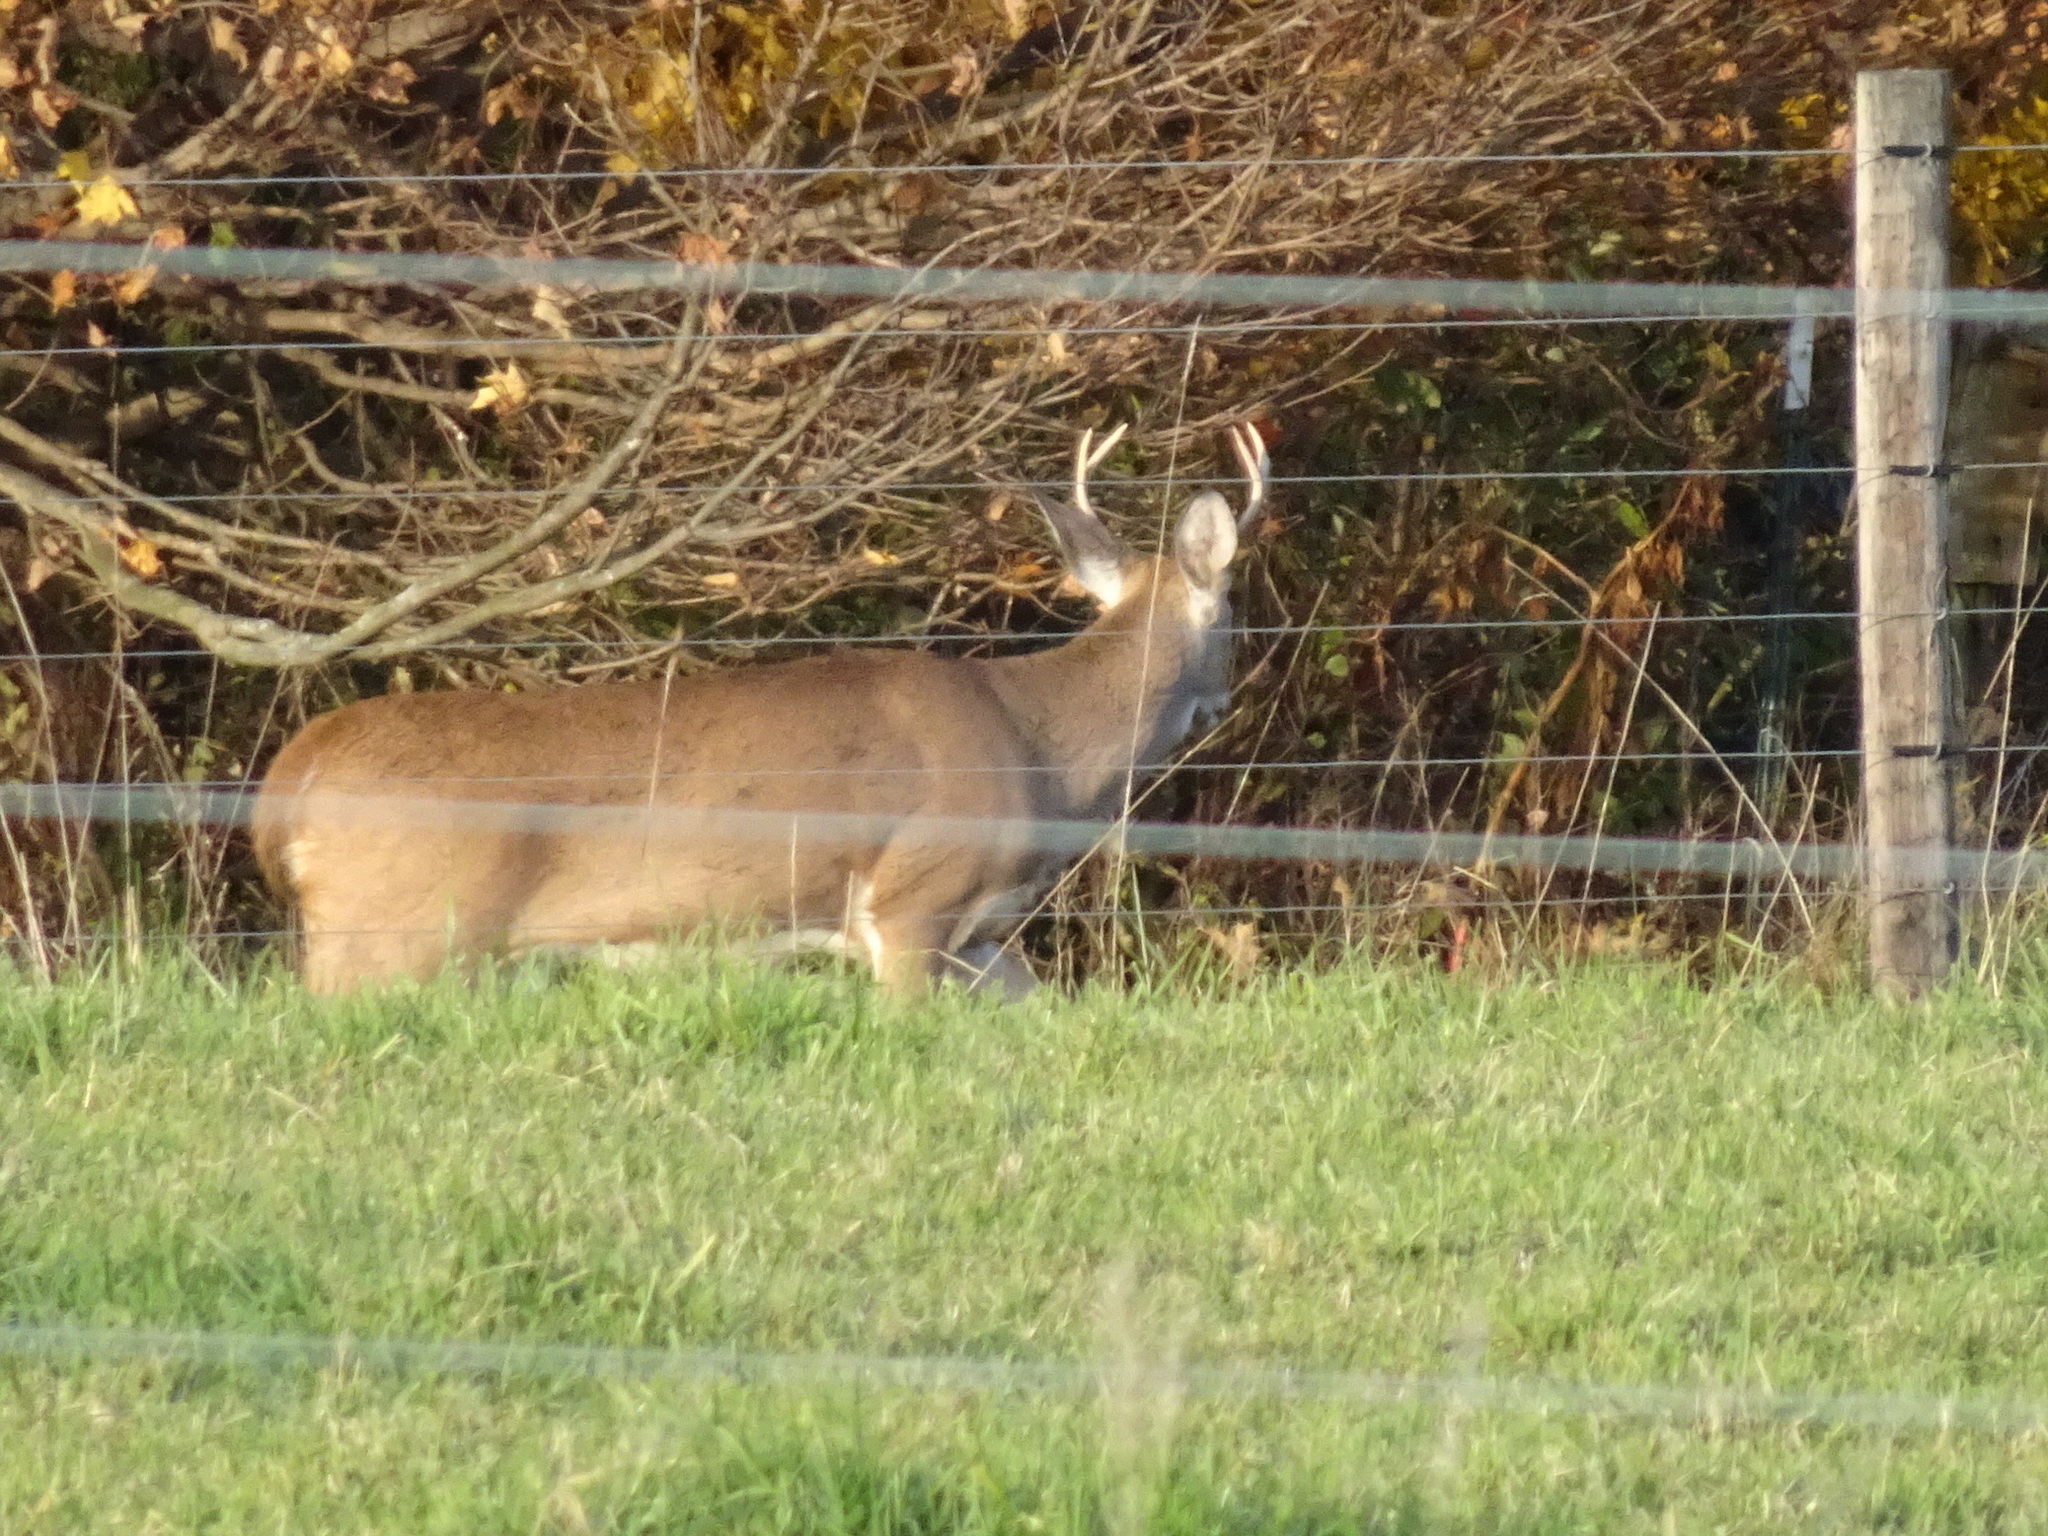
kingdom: Animalia
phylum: Chordata
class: Mammalia
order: Artiodactyla
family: Cervidae
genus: Odocoileus
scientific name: Odocoileus virginianus
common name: White-tailed deer
